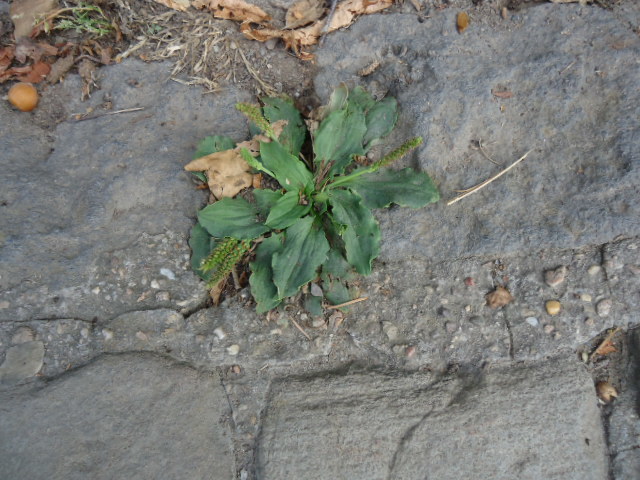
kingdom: Plantae
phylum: Tracheophyta
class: Magnoliopsida
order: Lamiales
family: Plantaginaceae
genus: Plantago
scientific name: Plantago major
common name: Common plantain
